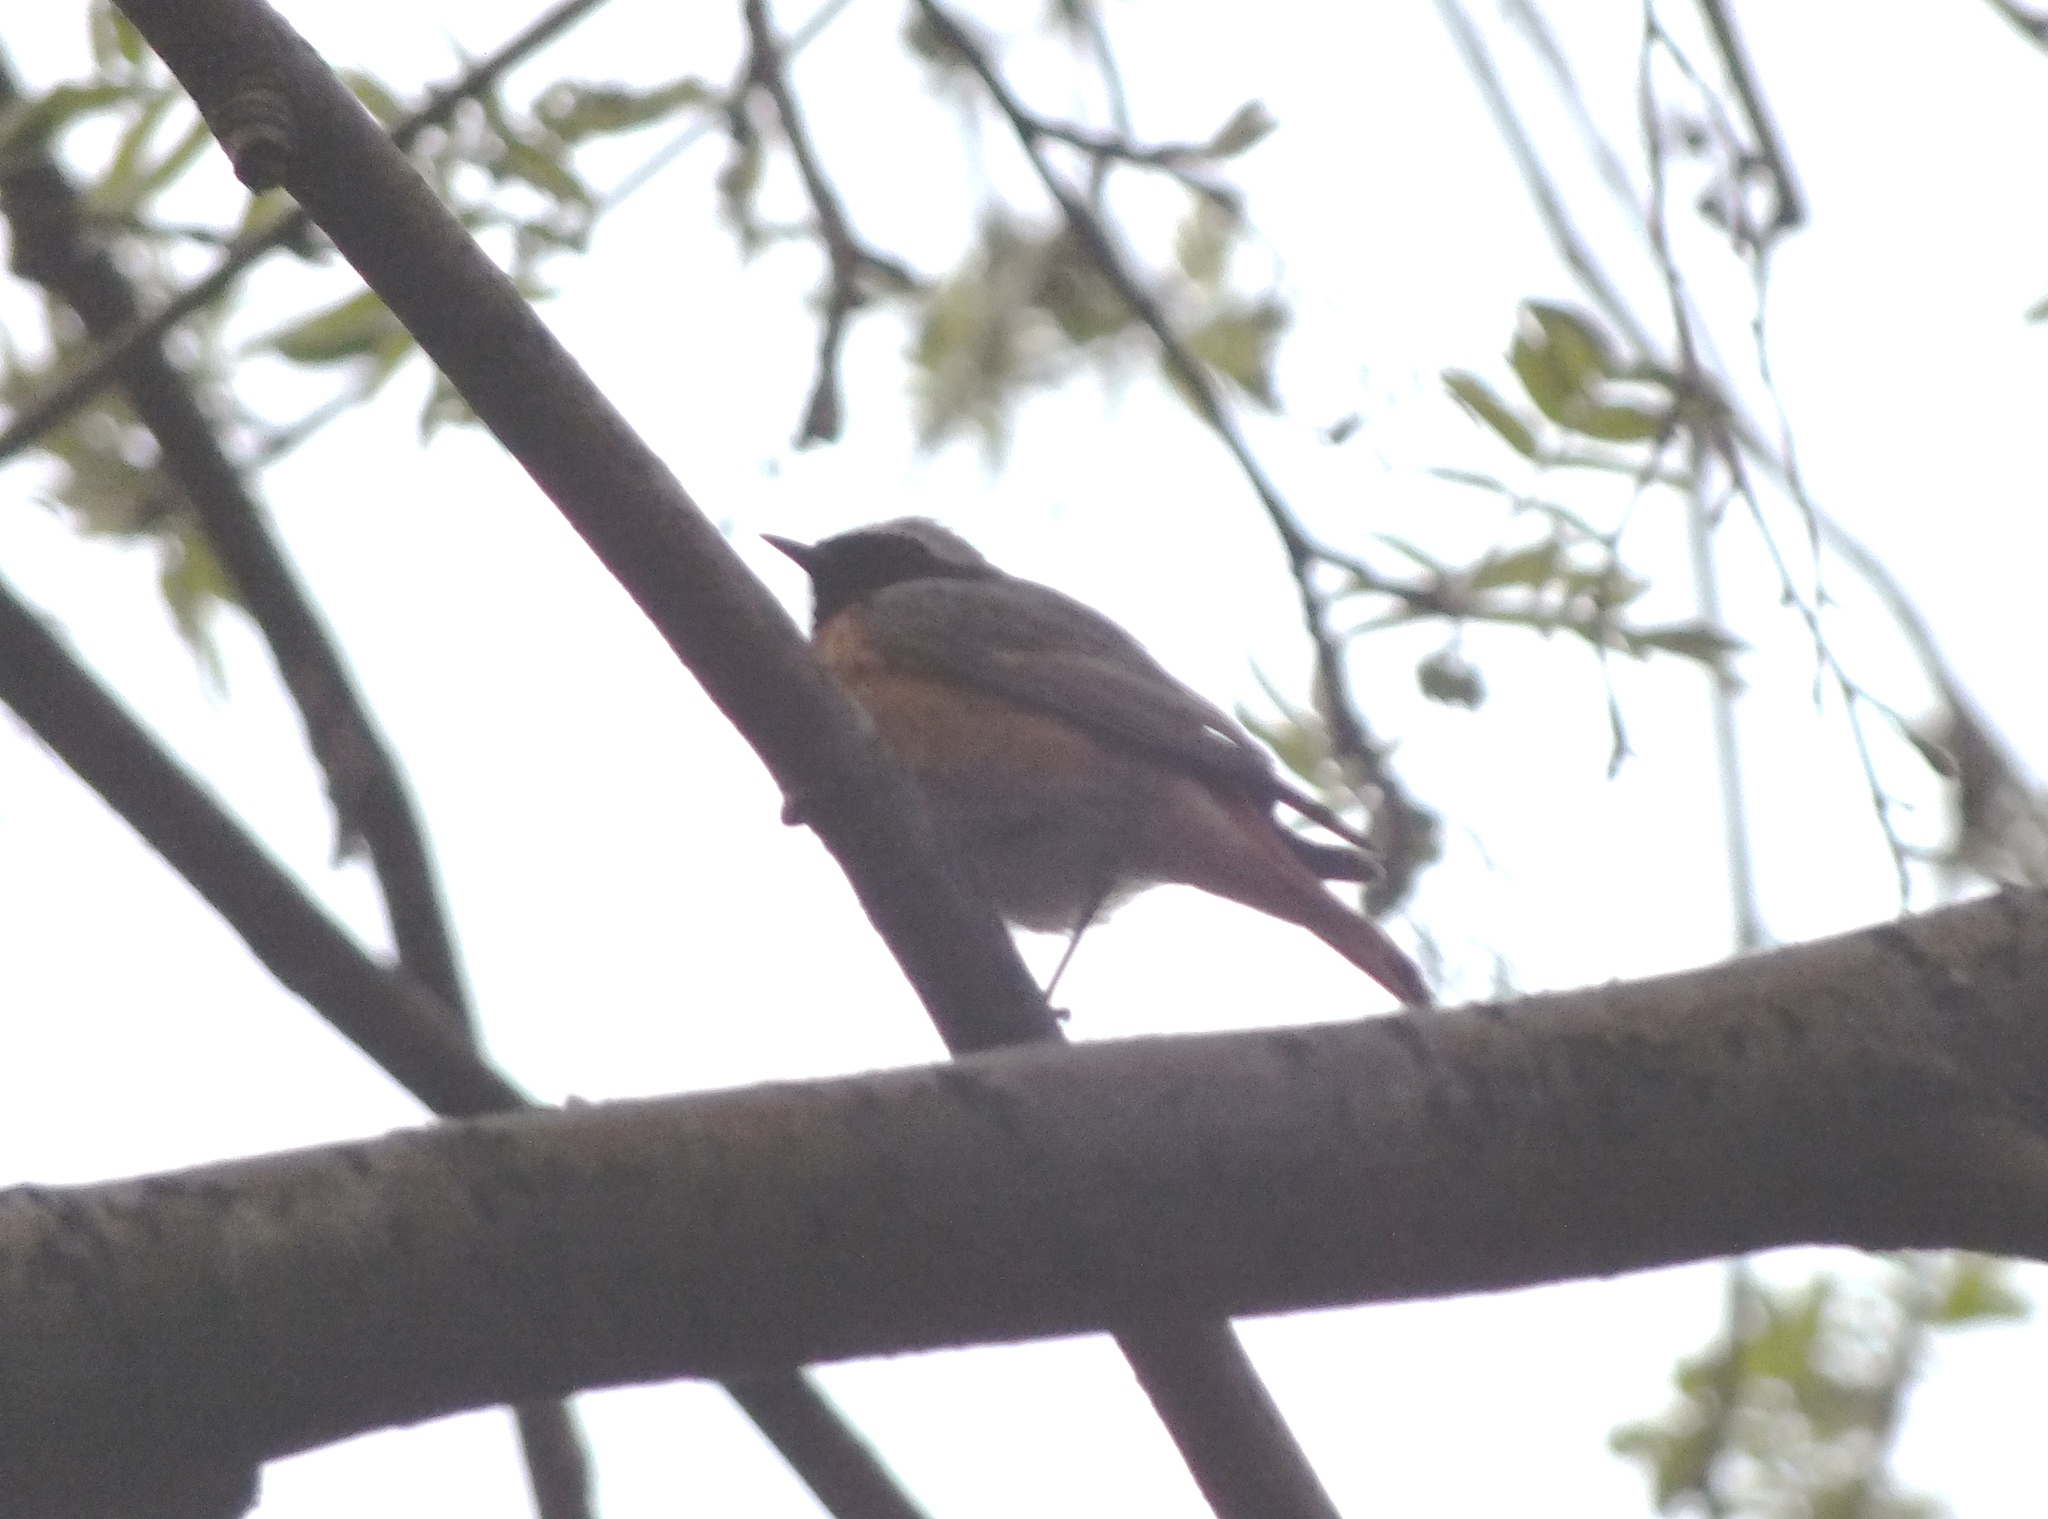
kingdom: Animalia
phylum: Chordata
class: Aves
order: Passeriformes
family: Muscicapidae
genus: Phoenicurus
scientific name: Phoenicurus phoenicurus
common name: Common redstart
